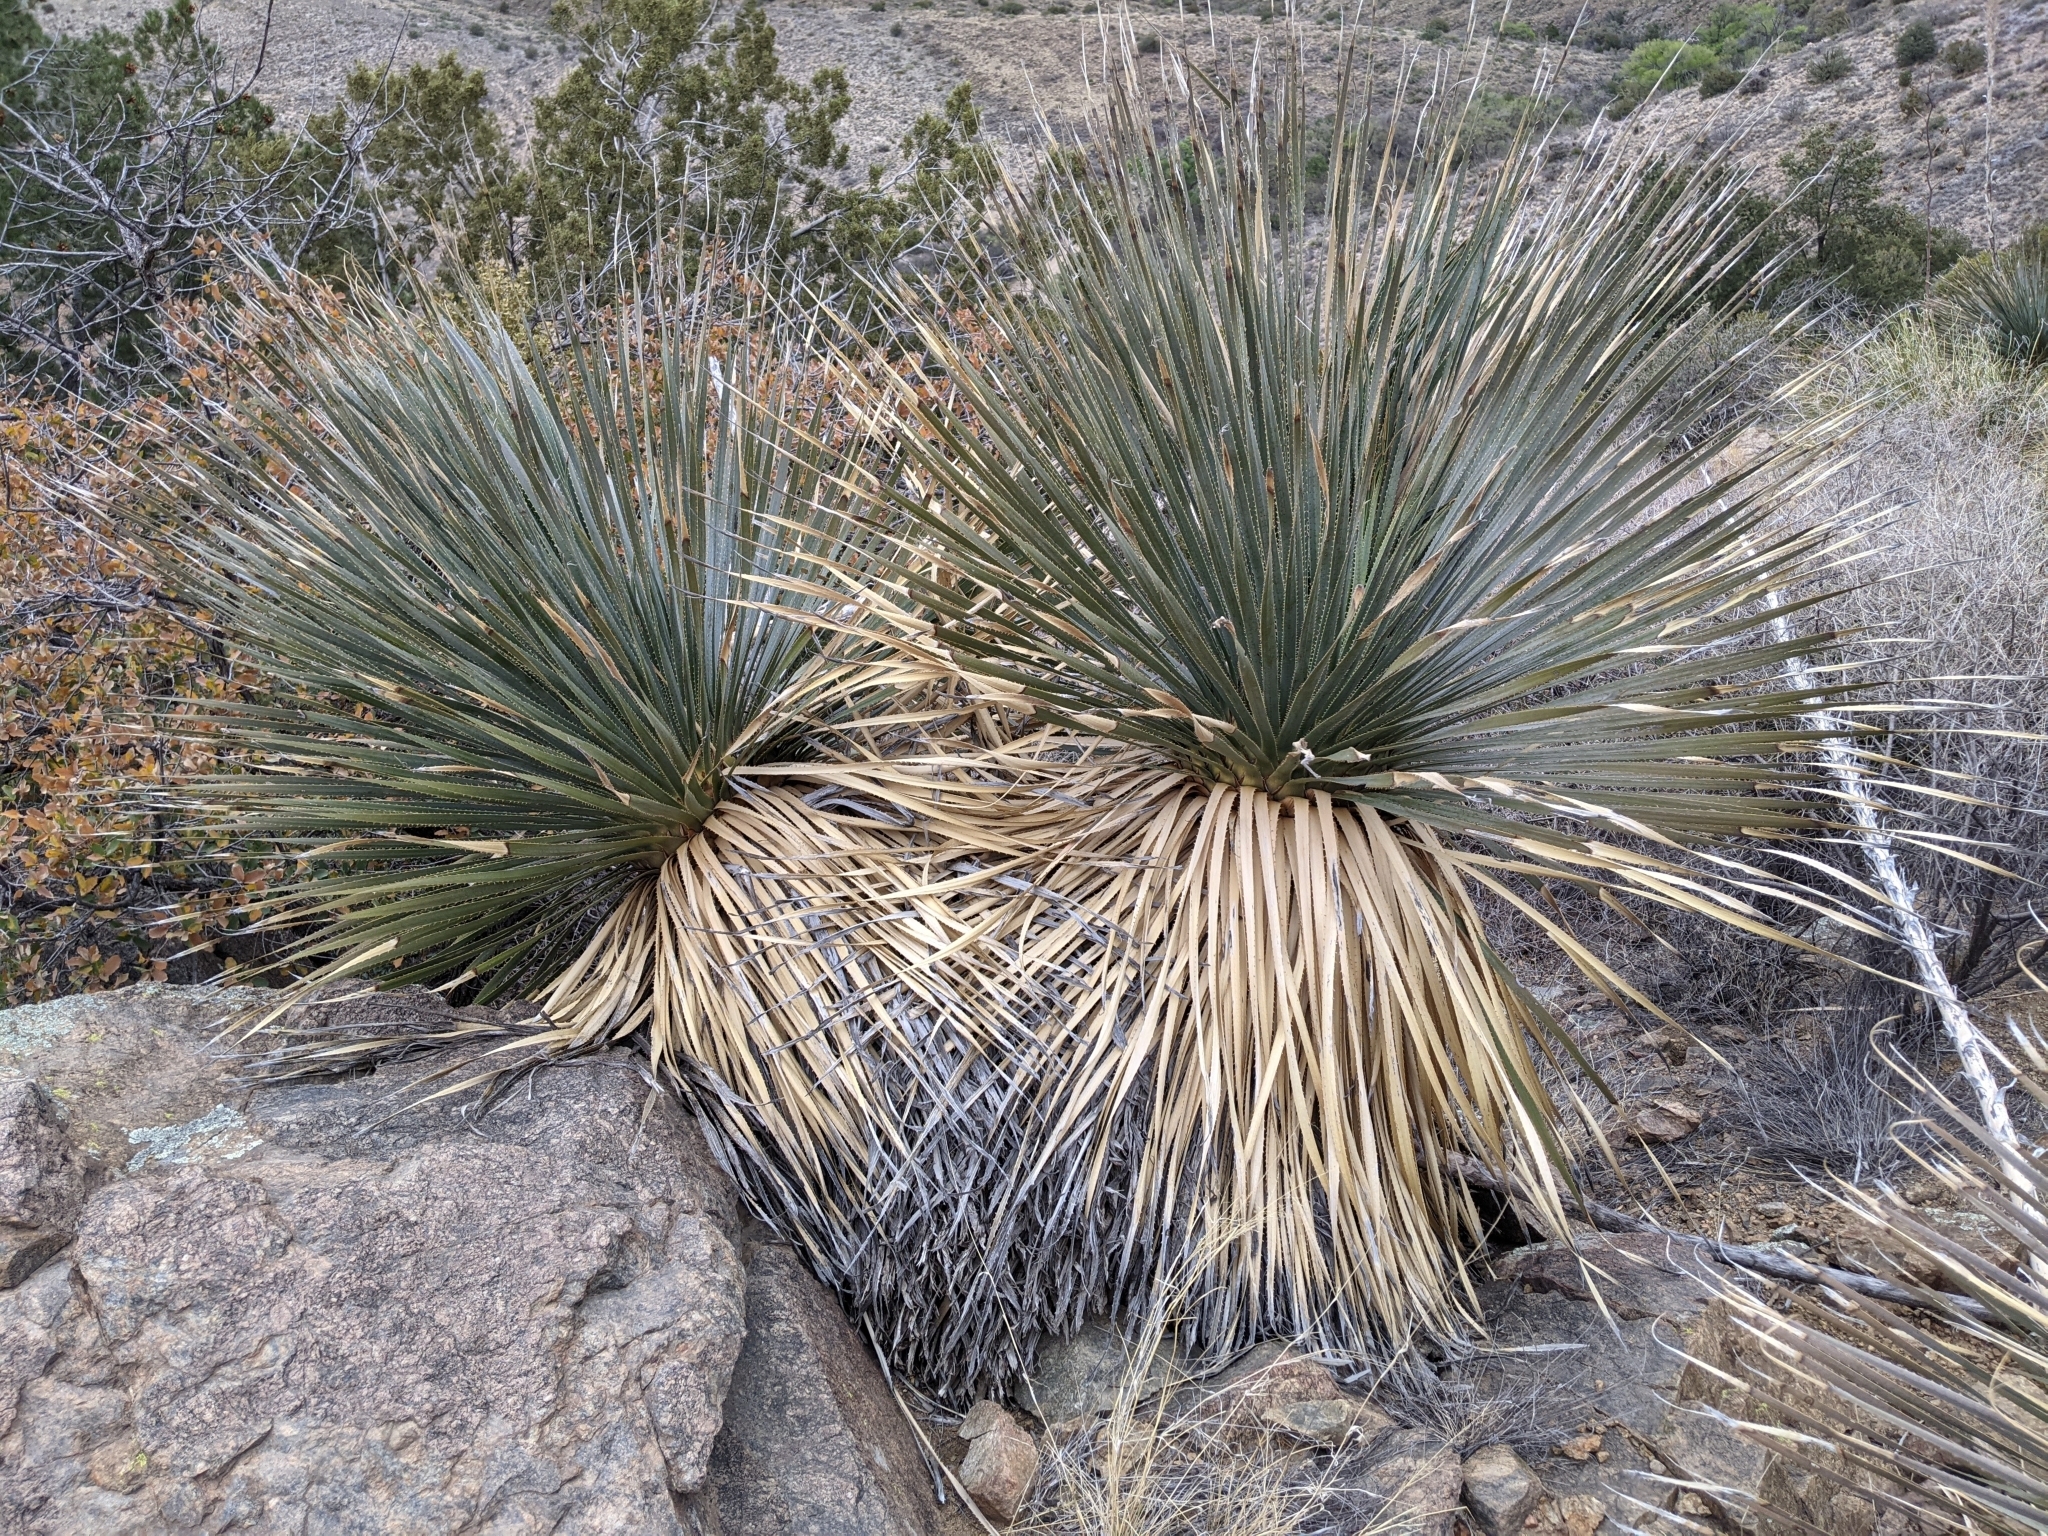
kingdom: Plantae
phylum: Tracheophyta
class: Liliopsida
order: Asparagales
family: Asparagaceae
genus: Dasylirion
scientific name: Dasylirion wheeleri
